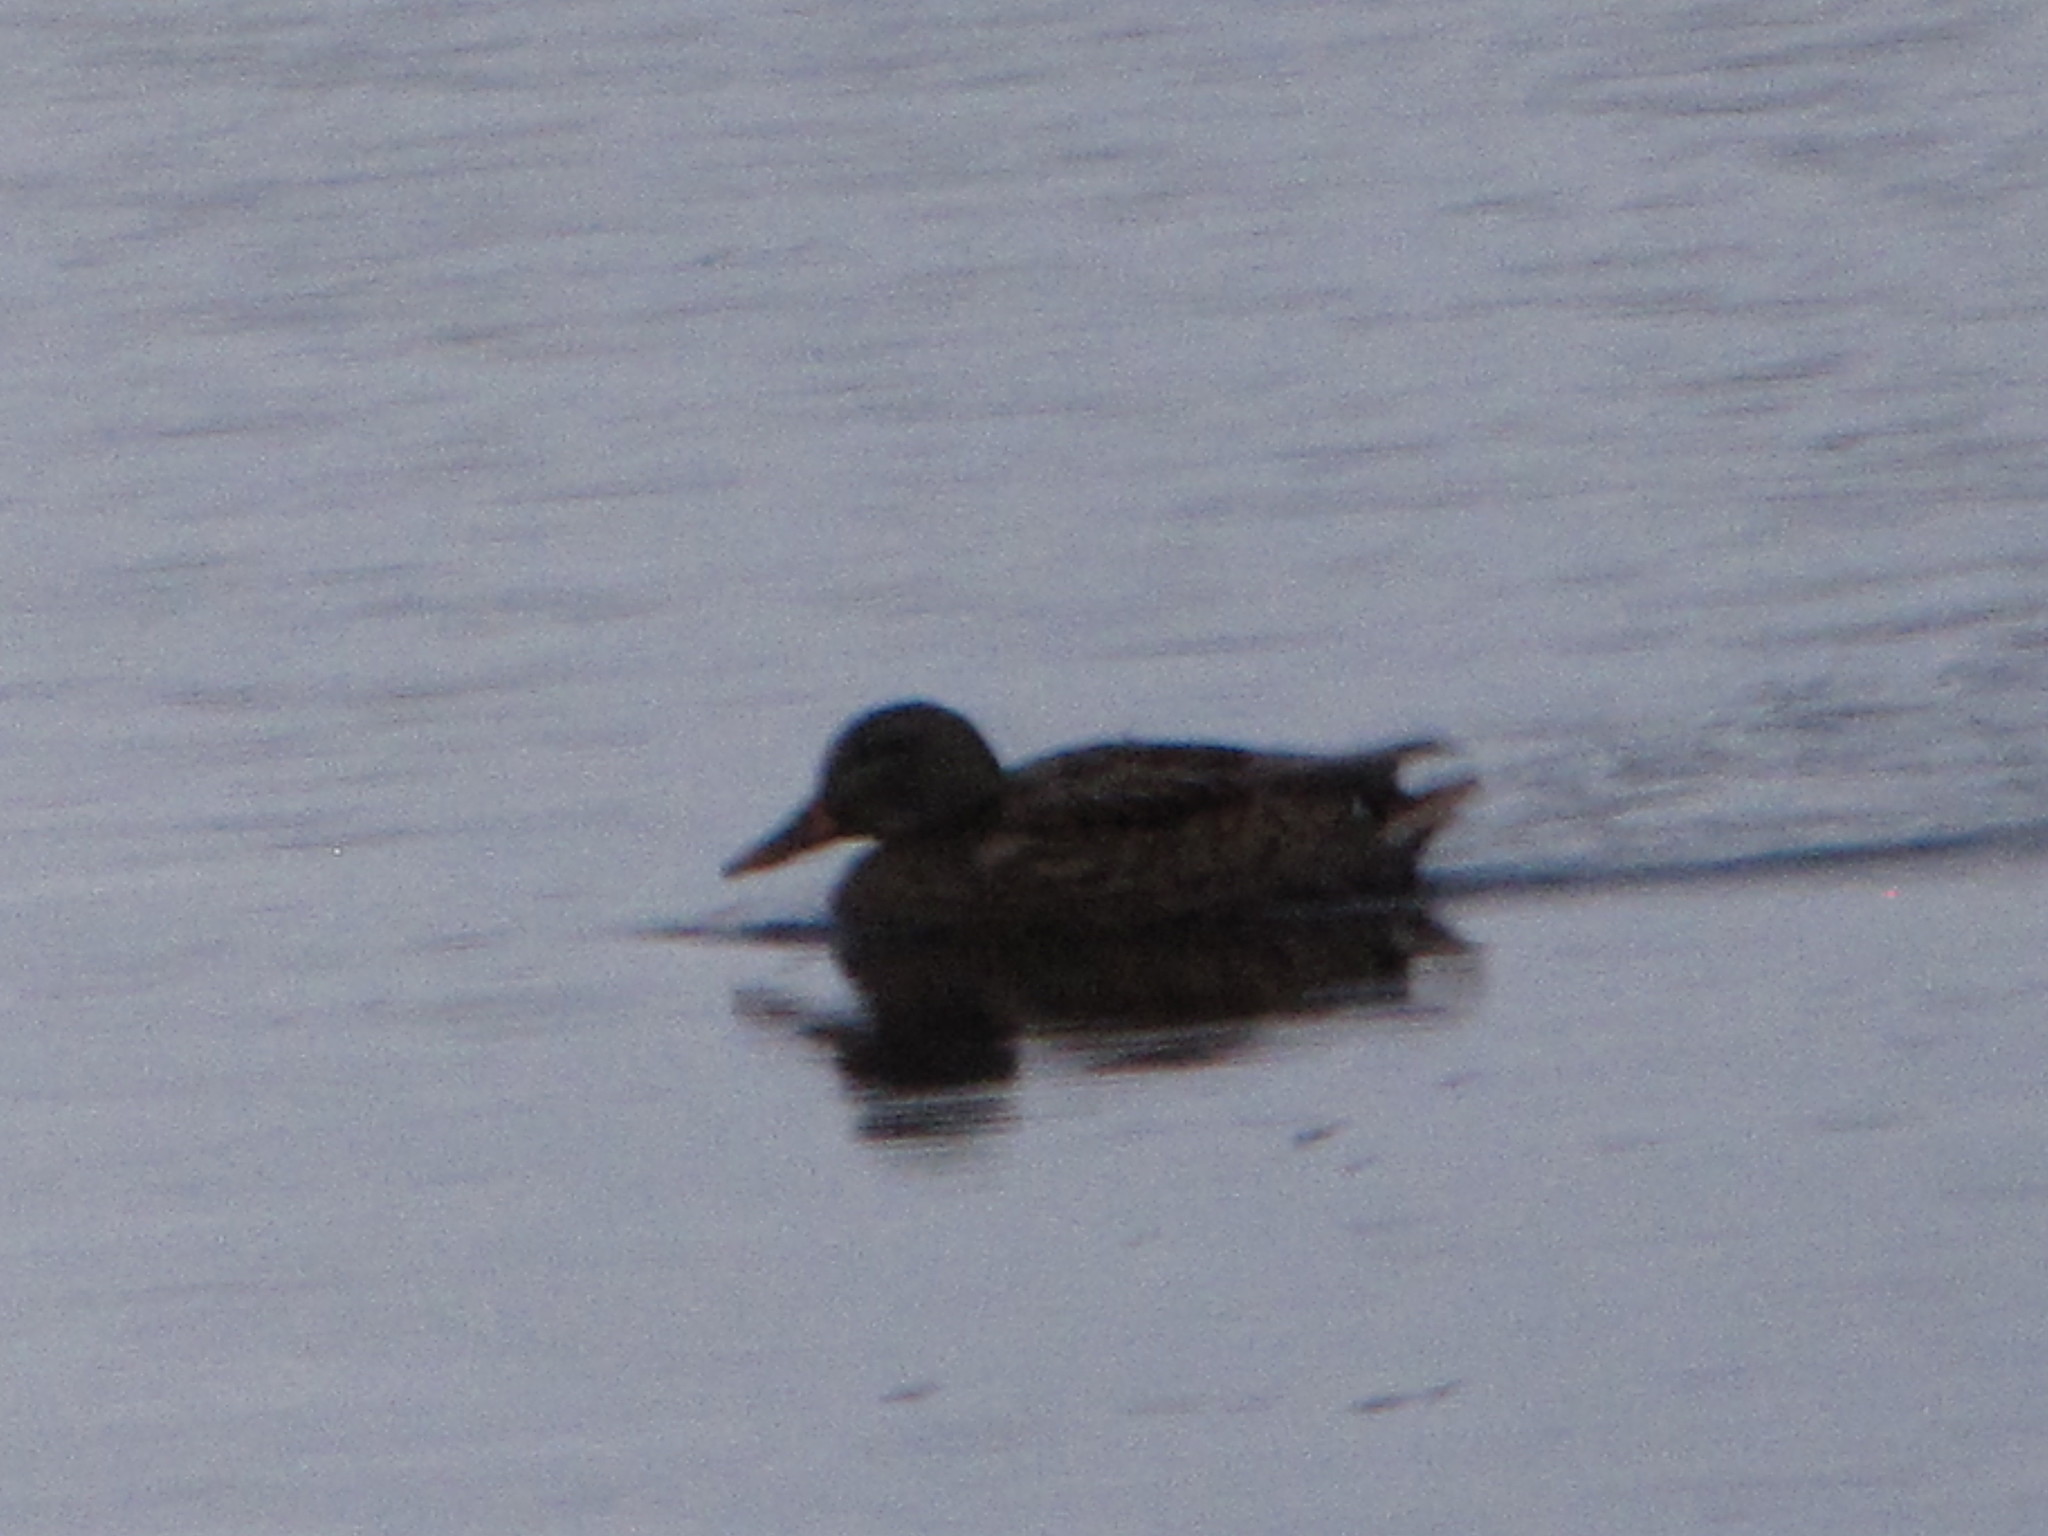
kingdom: Animalia
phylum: Chordata
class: Aves
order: Anseriformes
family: Anatidae
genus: Anas
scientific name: Anas platyrhynchos
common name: Mallard
